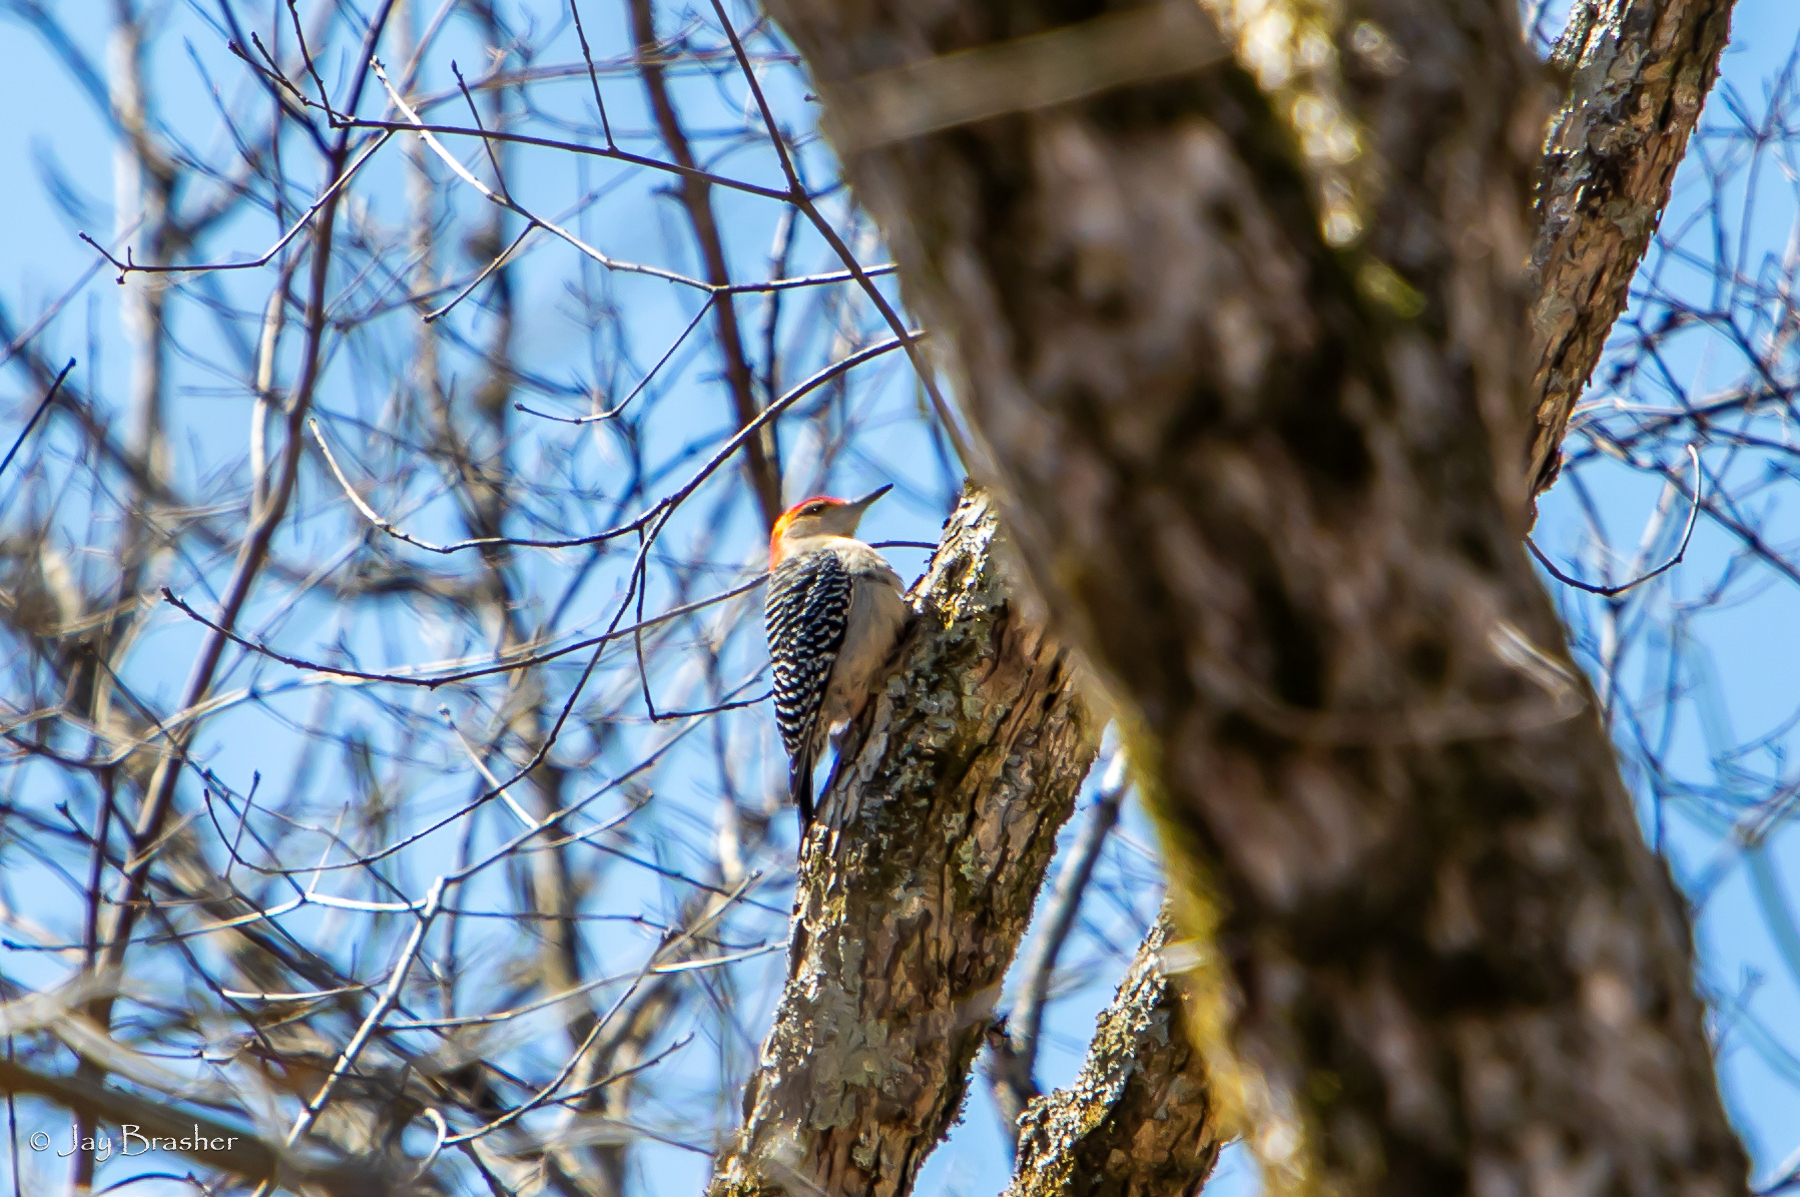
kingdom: Animalia
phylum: Chordata
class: Aves
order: Piciformes
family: Picidae
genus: Melanerpes
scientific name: Melanerpes carolinus
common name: Red-bellied woodpecker
